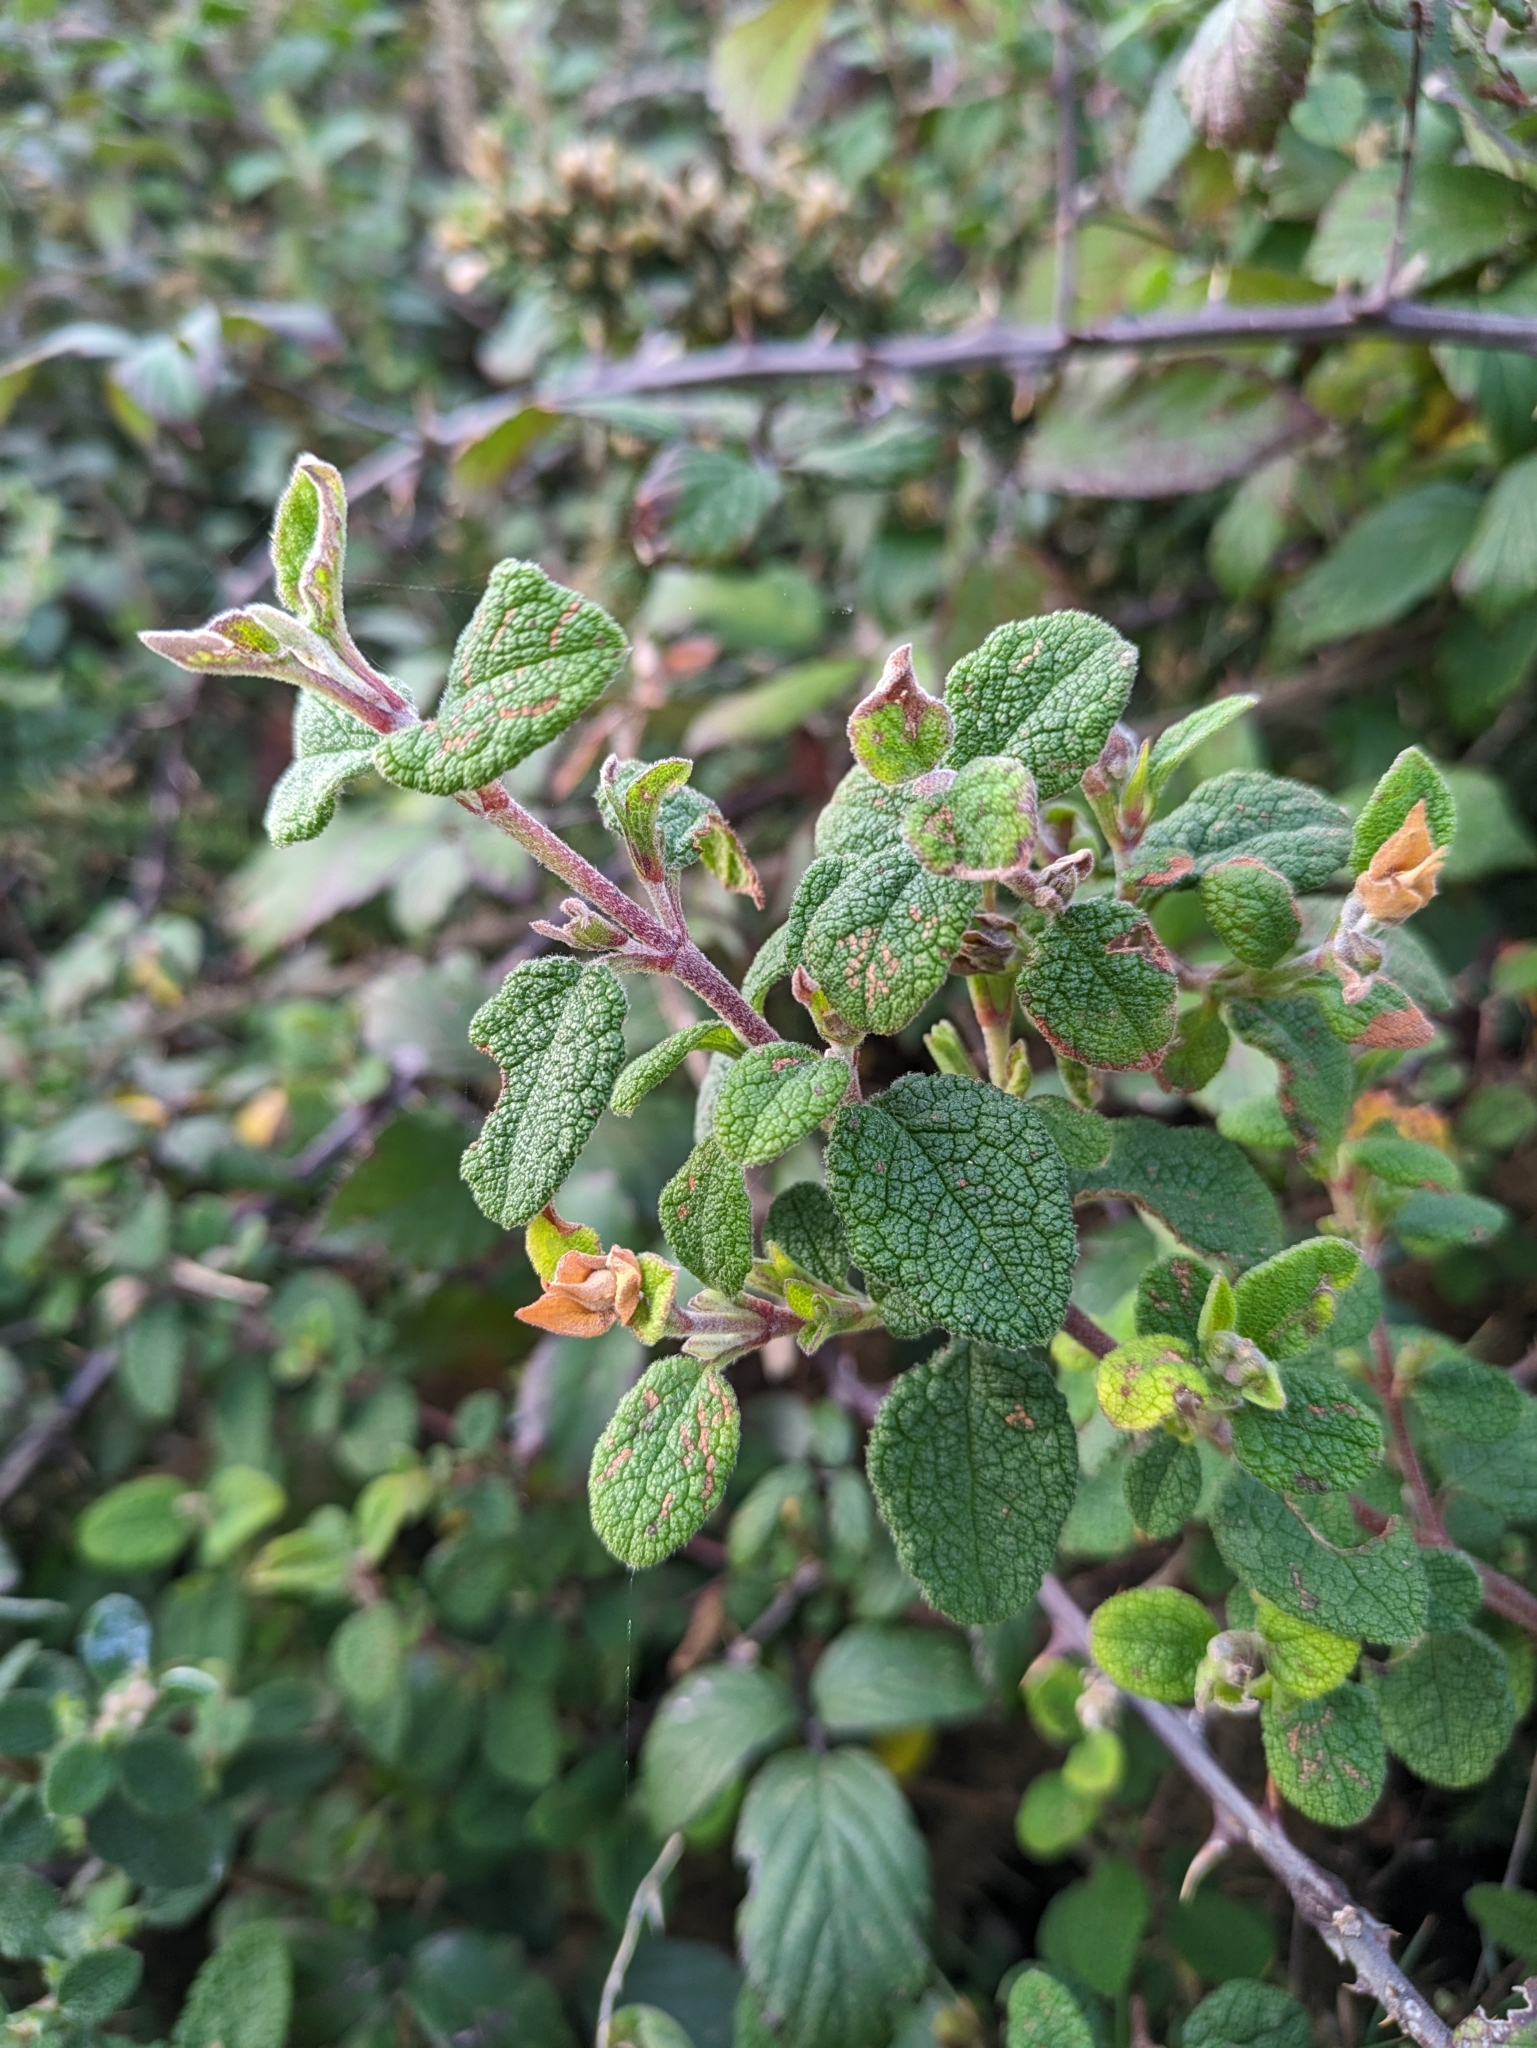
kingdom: Plantae
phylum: Tracheophyta
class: Magnoliopsida
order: Malvales
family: Cistaceae
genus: Cistus
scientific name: Cistus salviifolius
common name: Salvia cistus
